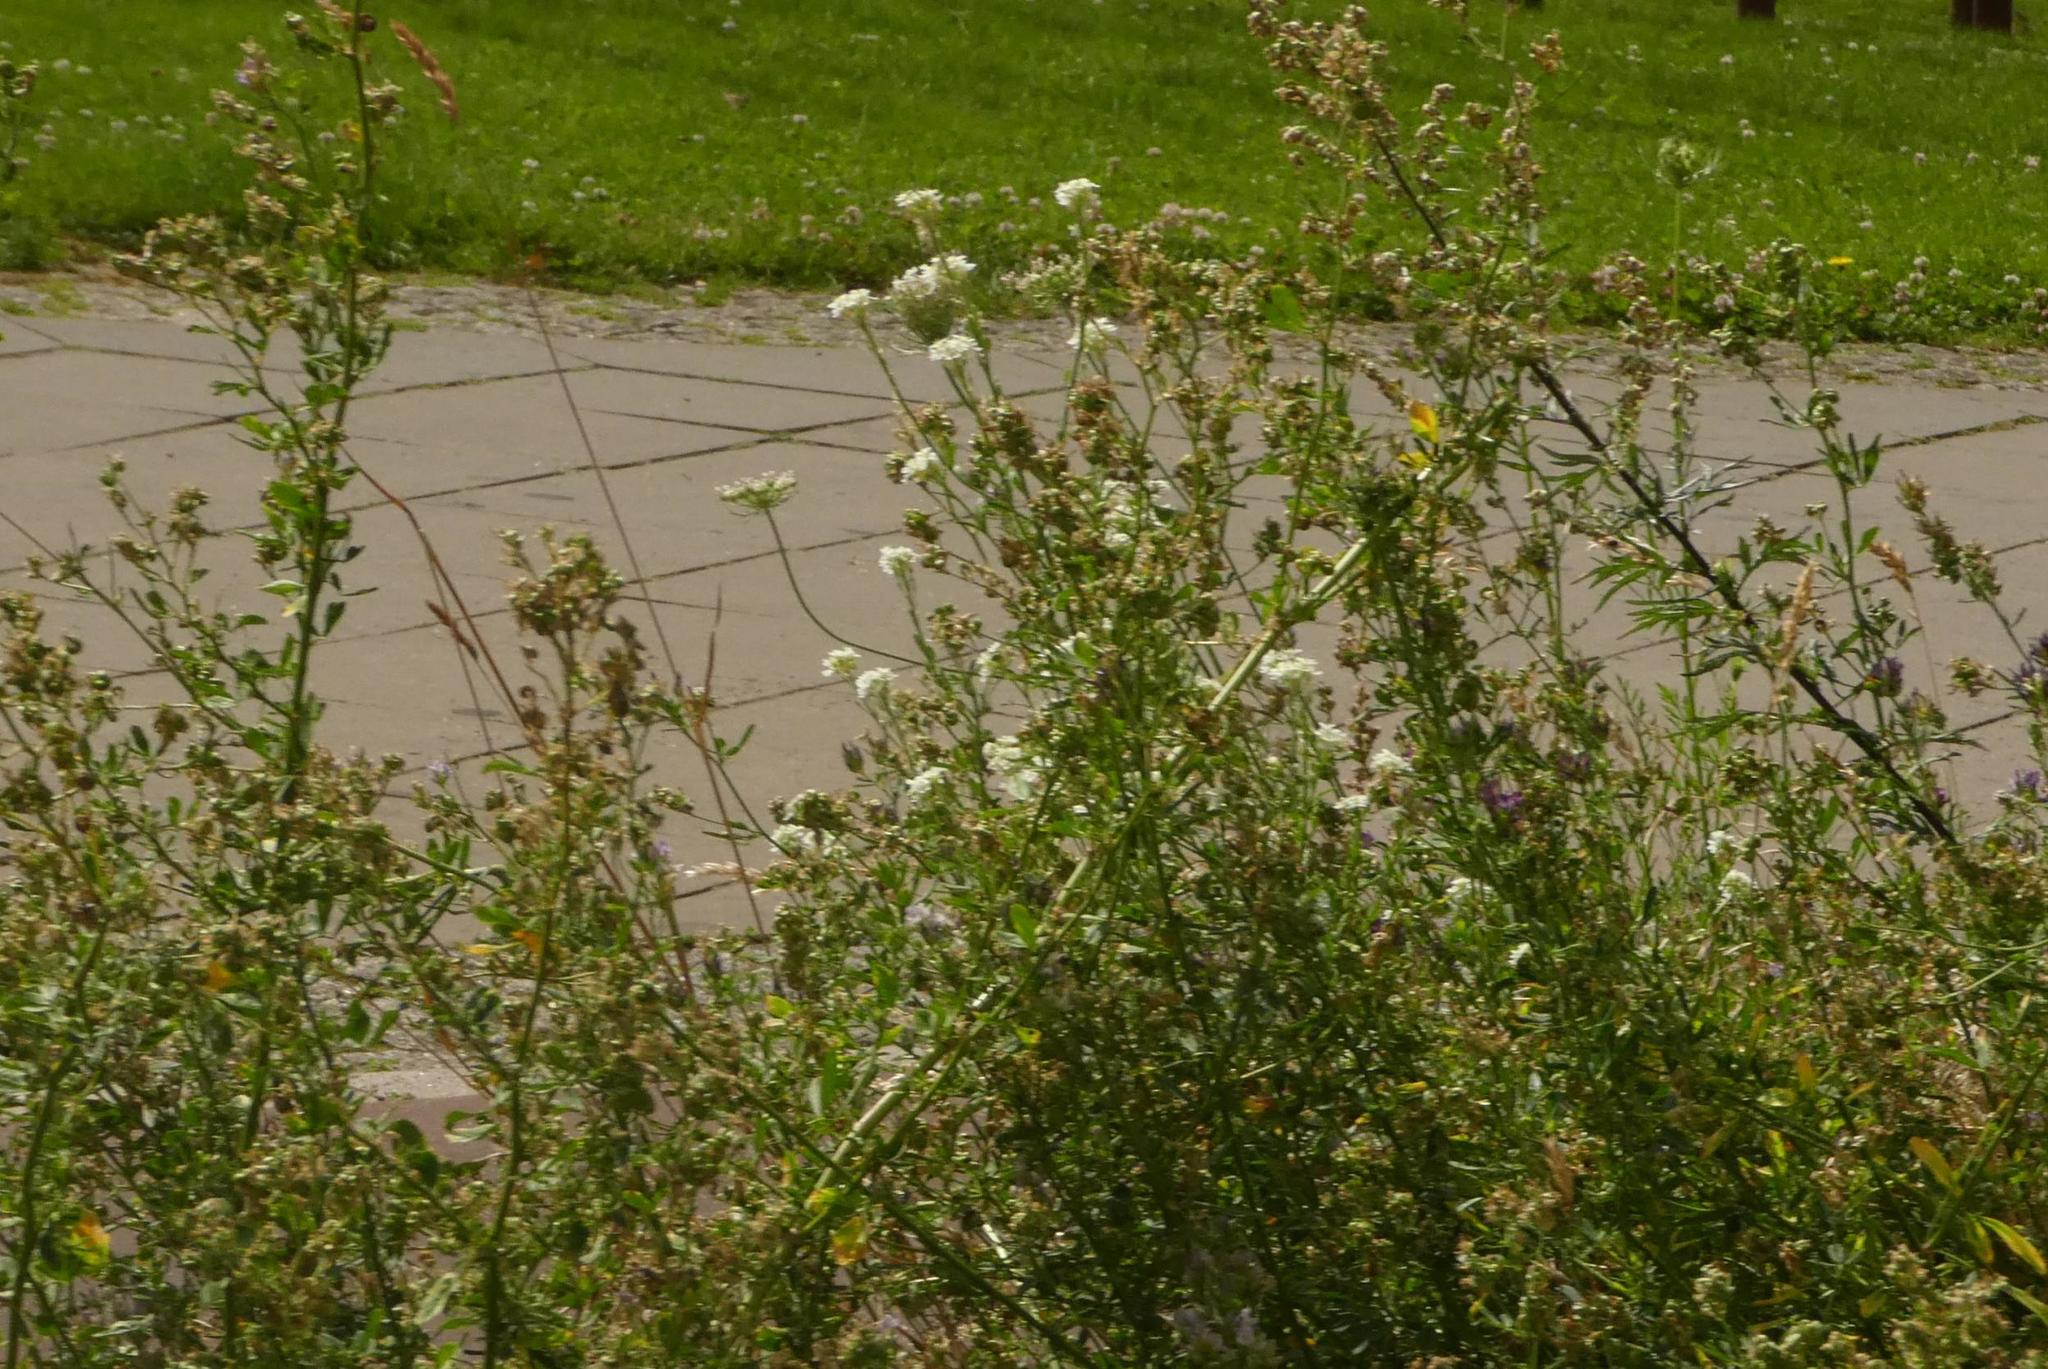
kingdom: Plantae
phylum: Tracheophyta
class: Magnoliopsida
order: Brassicales
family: Brassicaceae
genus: Berteroa
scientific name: Berteroa incana
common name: Hoary alison
